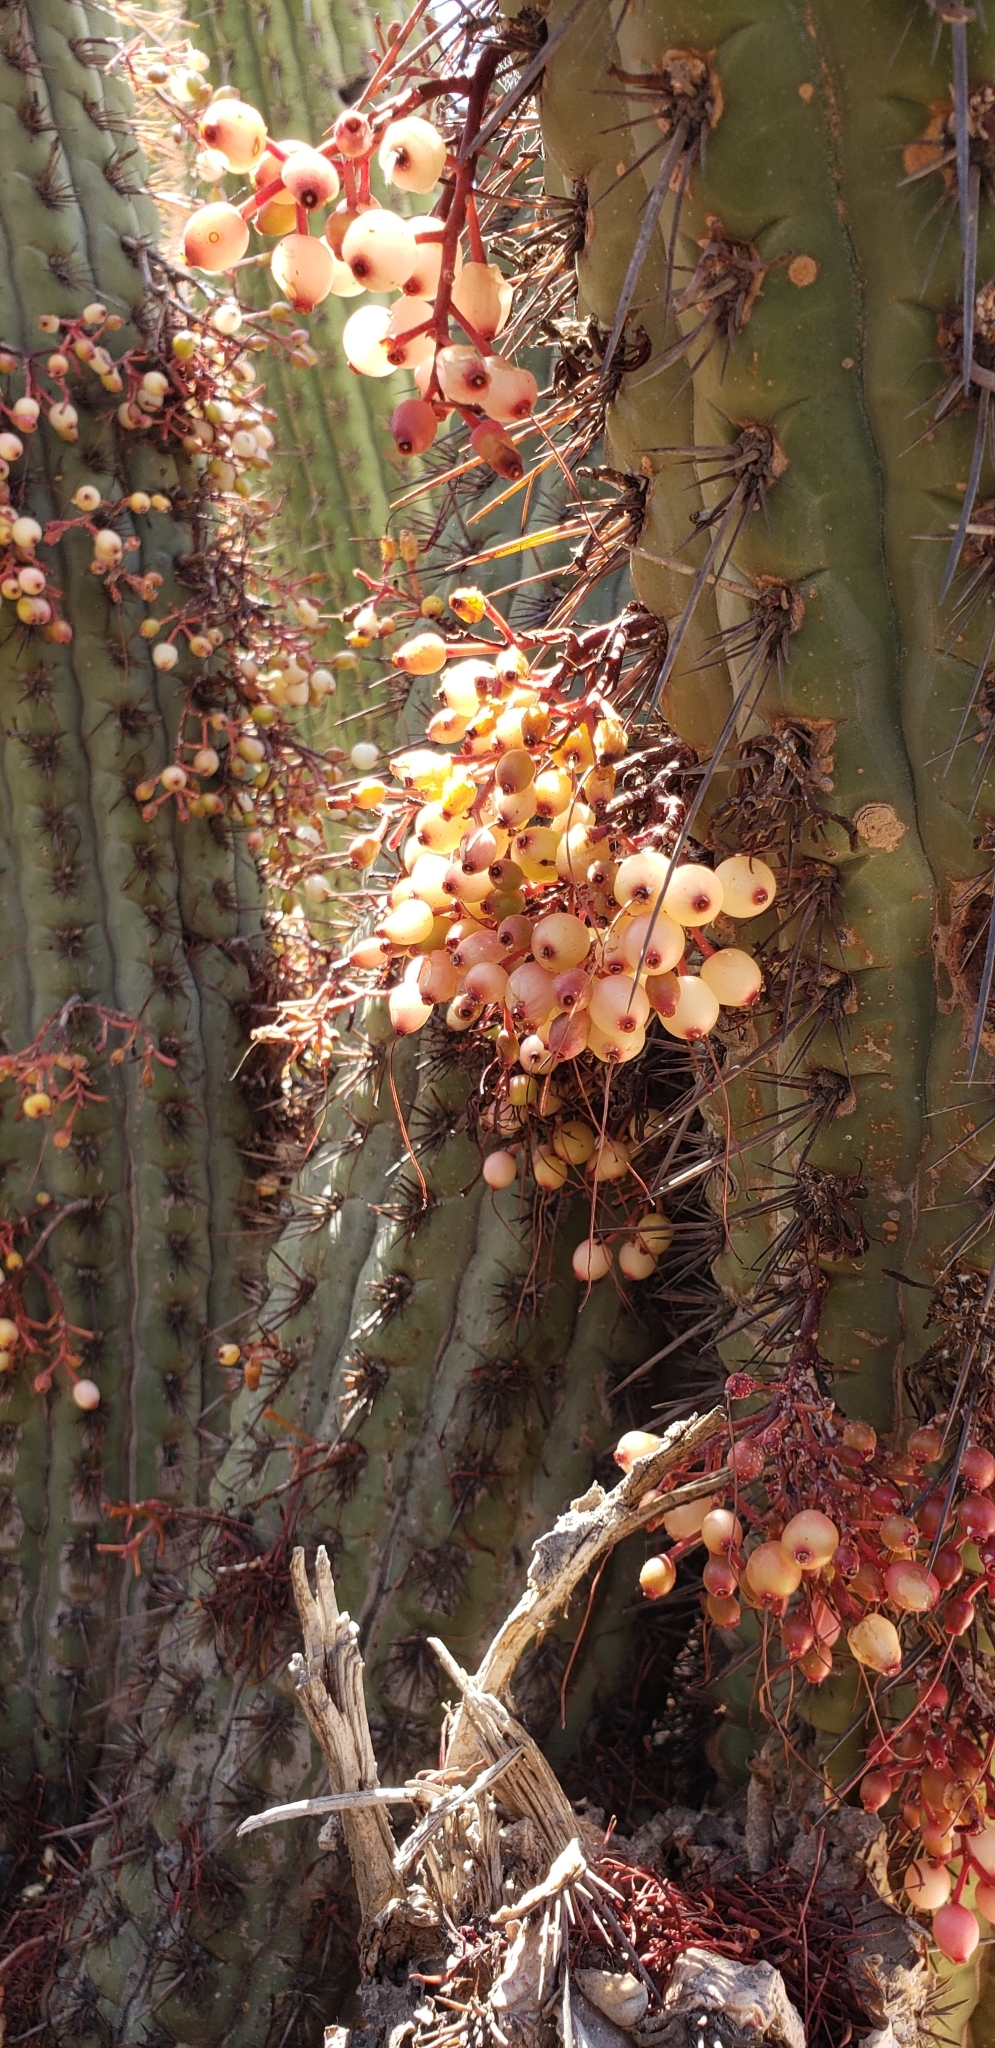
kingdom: Plantae
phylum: Tracheophyta
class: Magnoliopsida
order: Santalales
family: Loranthaceae
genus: Tristerix
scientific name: Tristerix aphyllus
